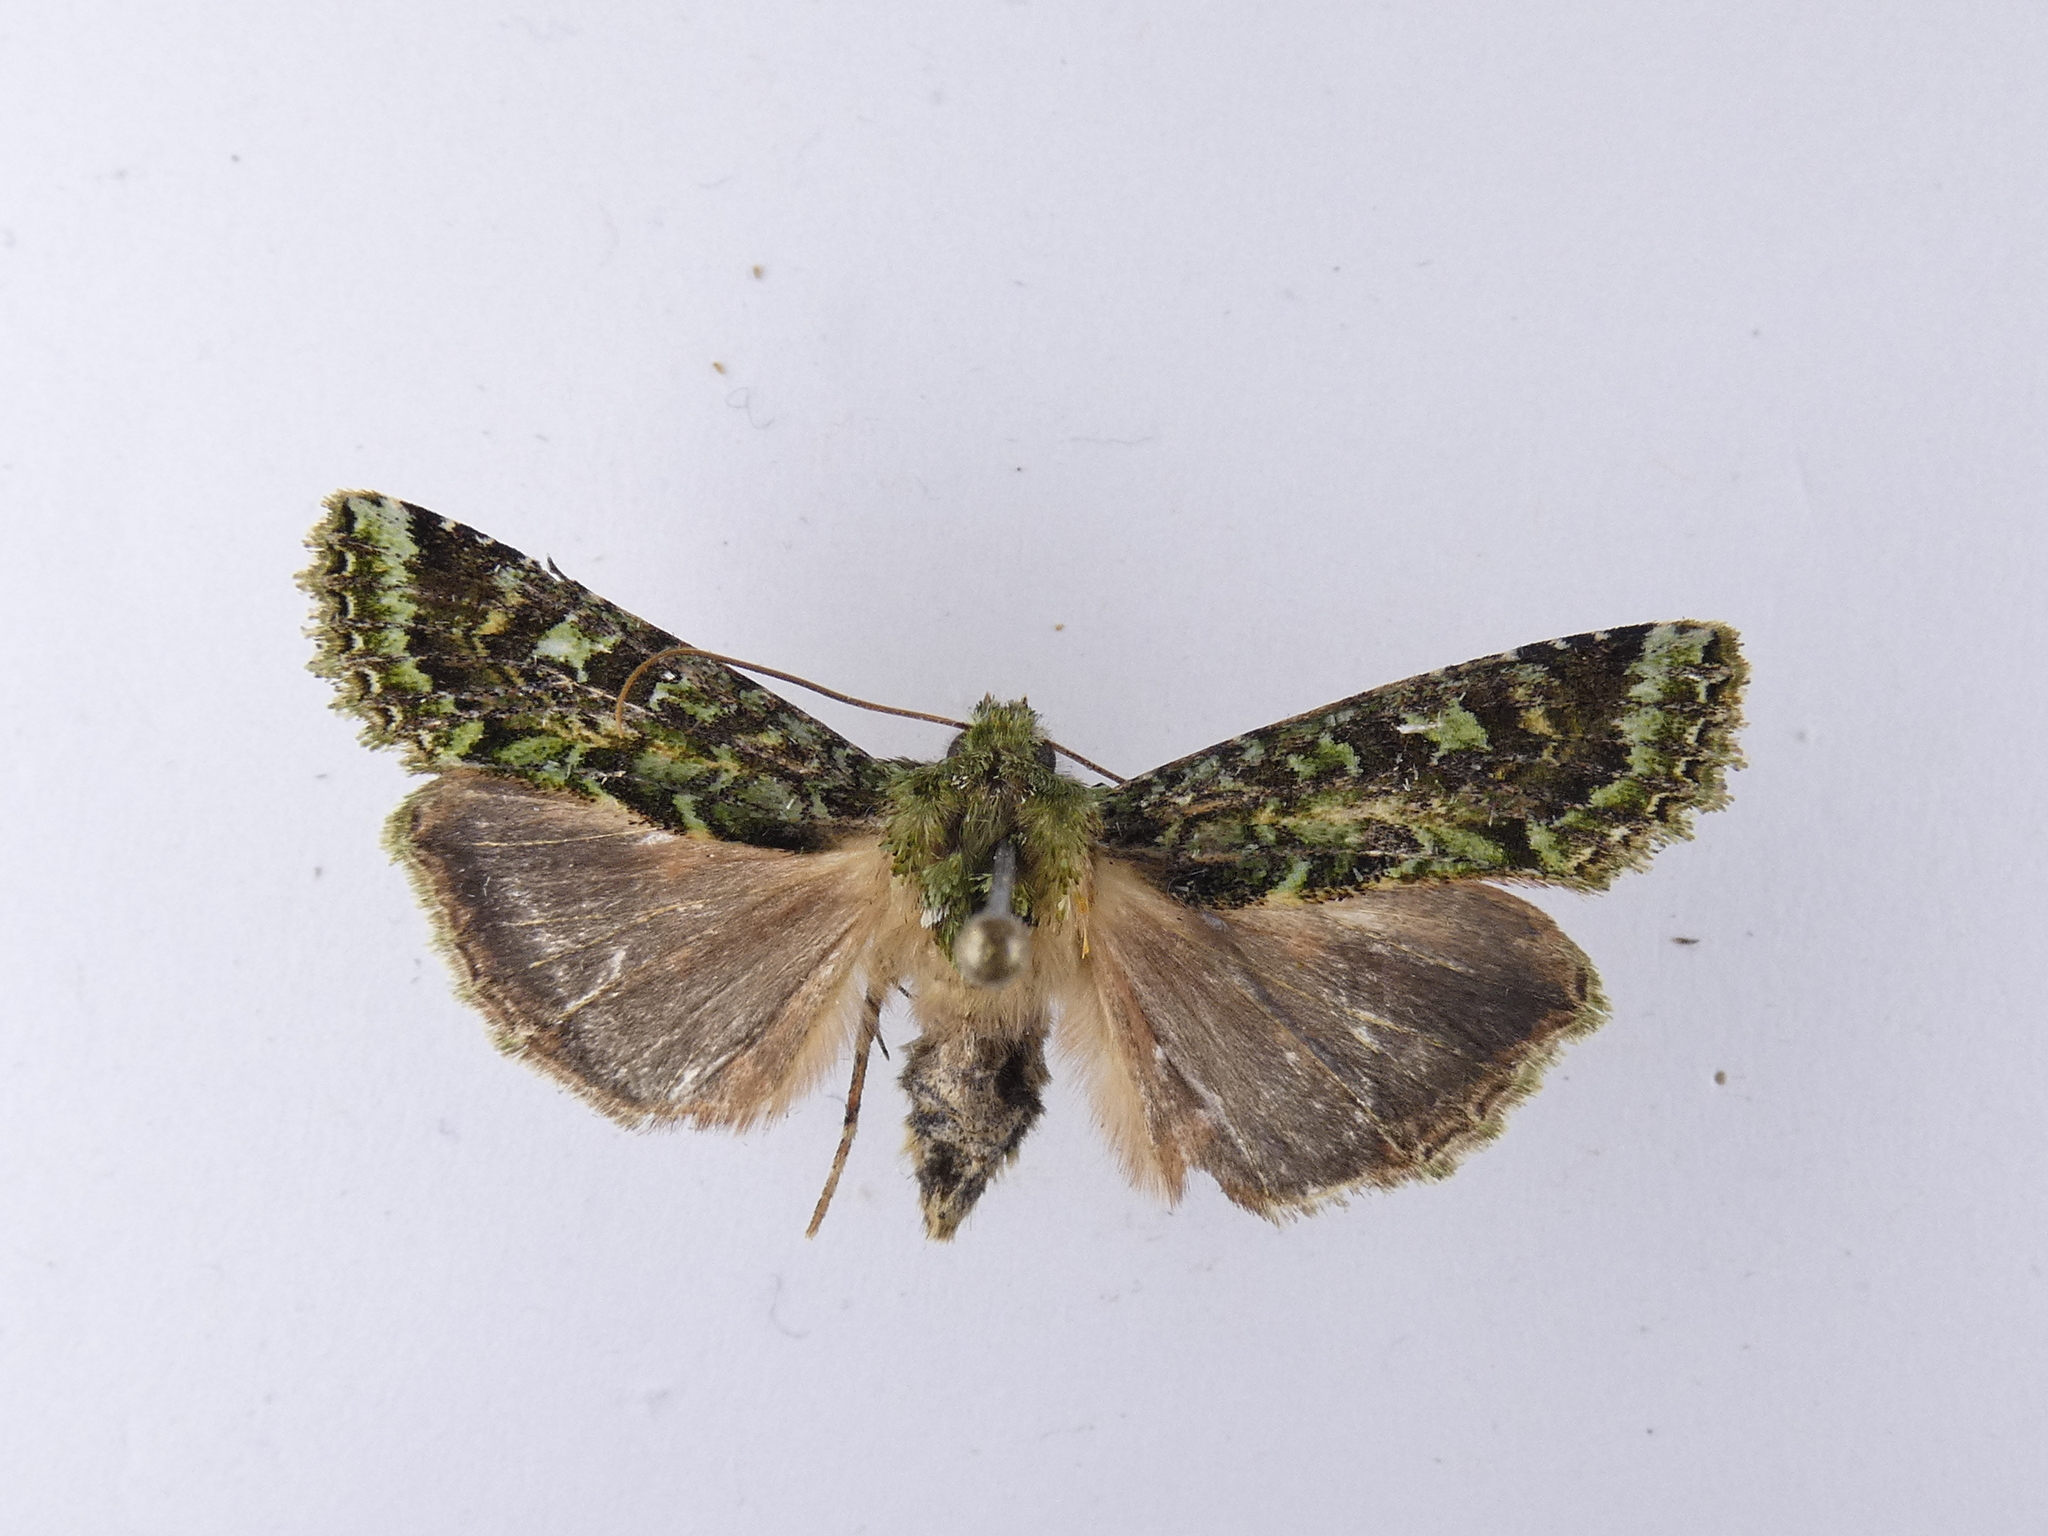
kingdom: Animalia
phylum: Arthropoda
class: Insecta
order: Lepidoptera
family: Noctuidae
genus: Feredayia
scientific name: Feredayia grammosa
